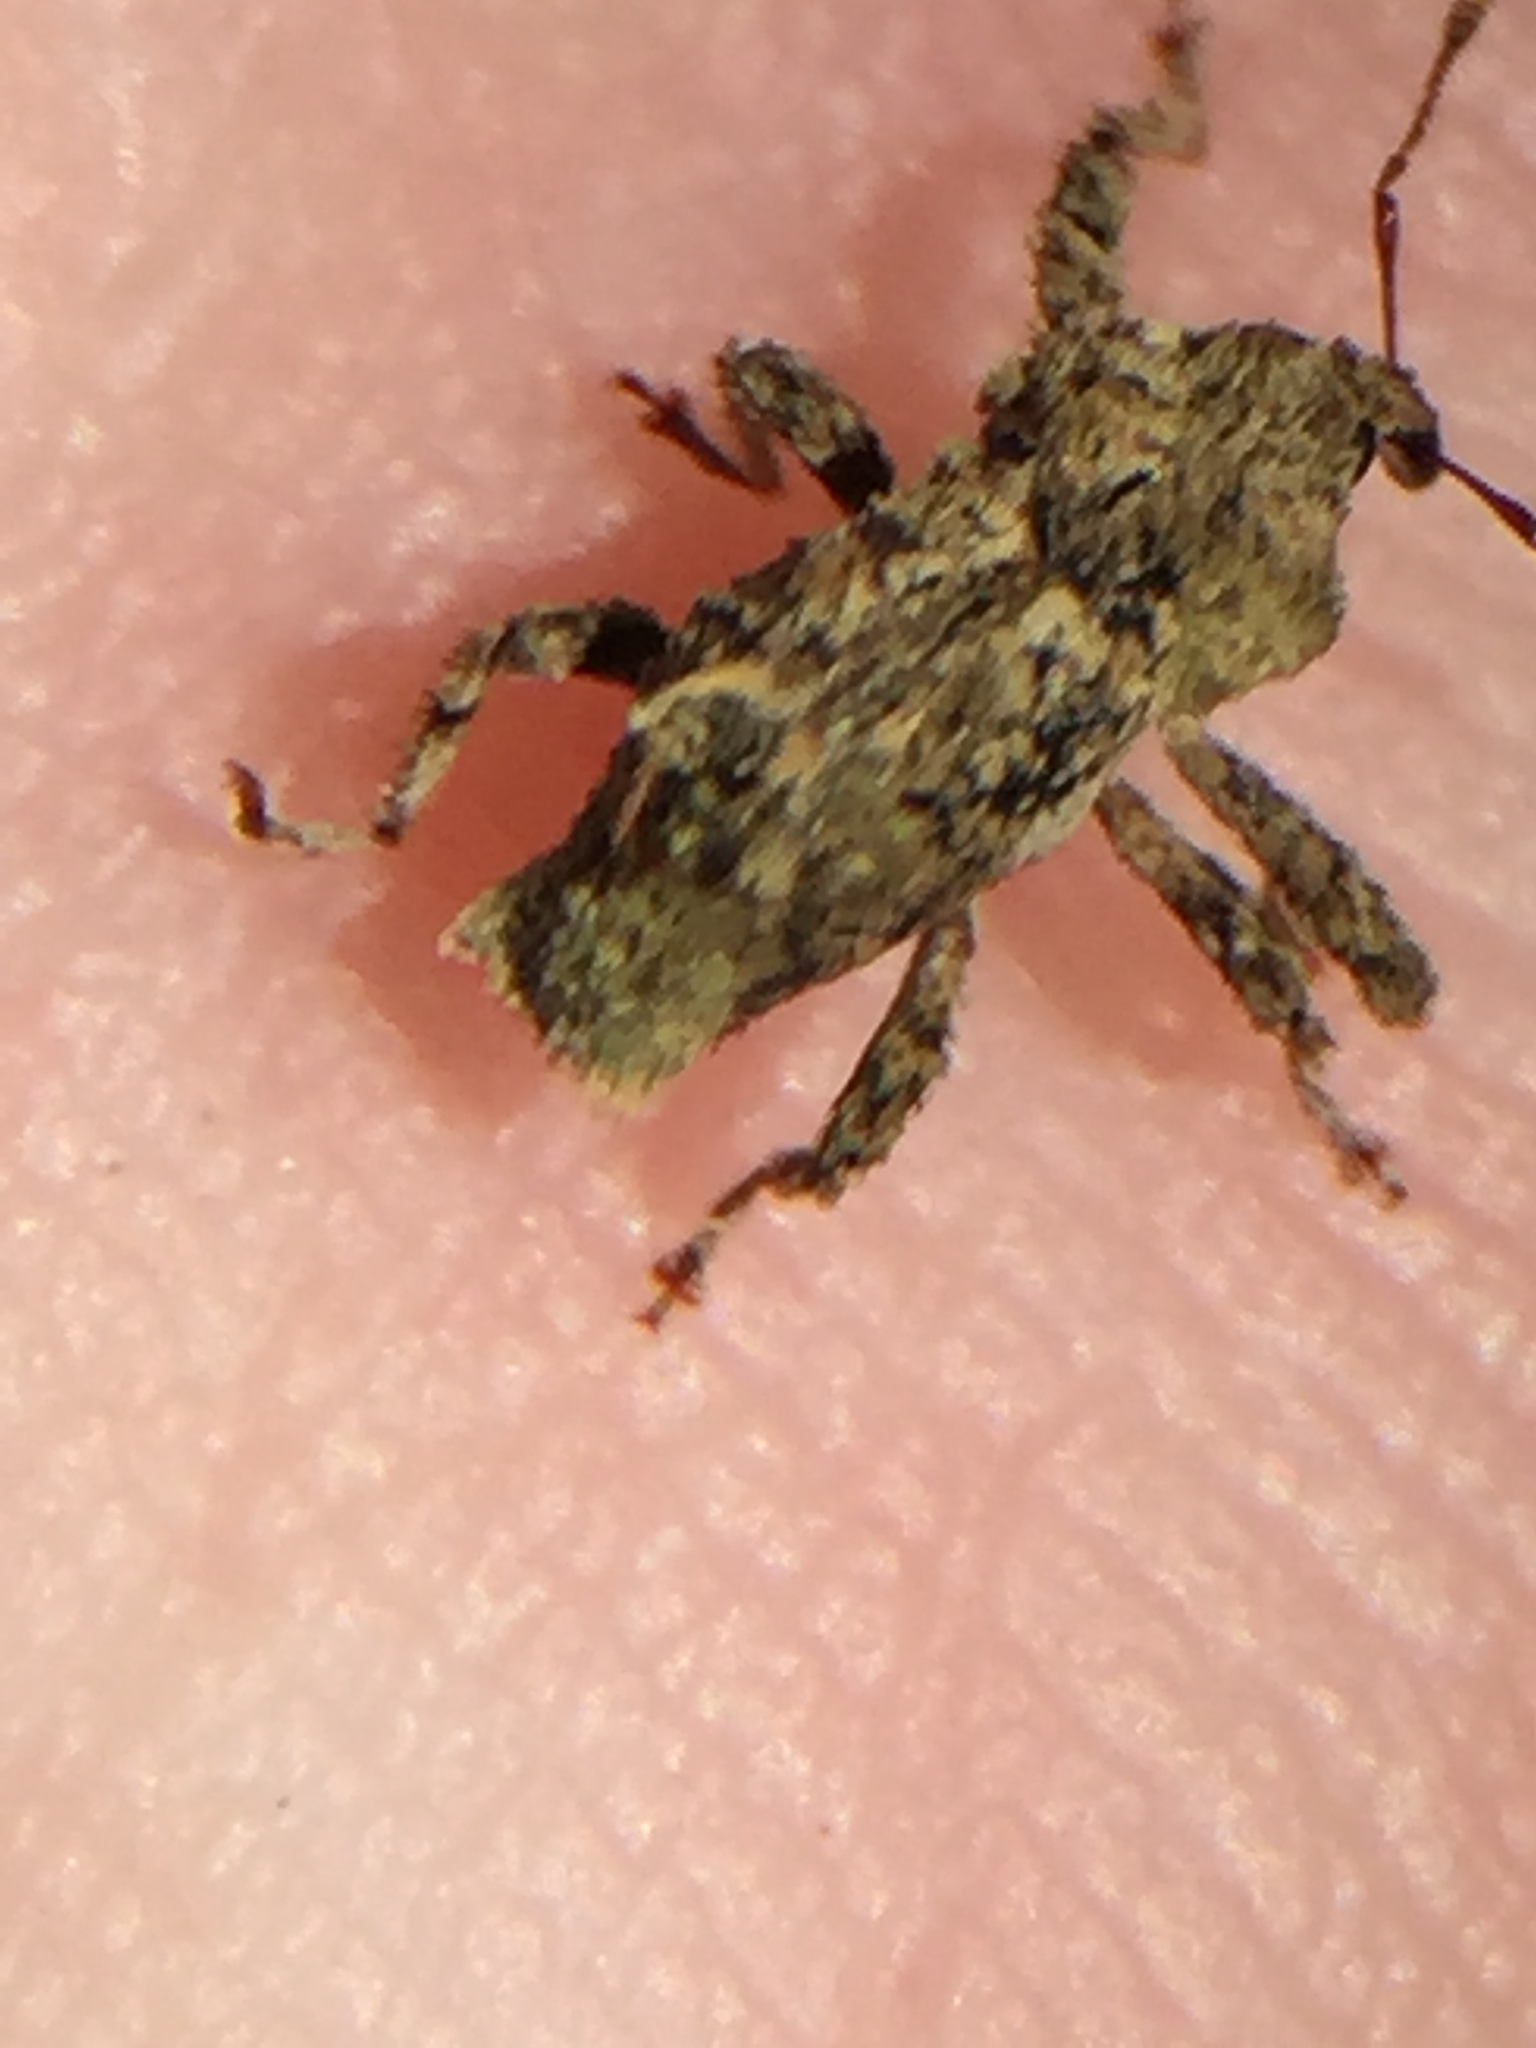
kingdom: Animalia
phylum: Arthropoda
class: Insecta
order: Coleoptera
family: Curculionidae
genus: Indecentia
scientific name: Indecentia nubila
